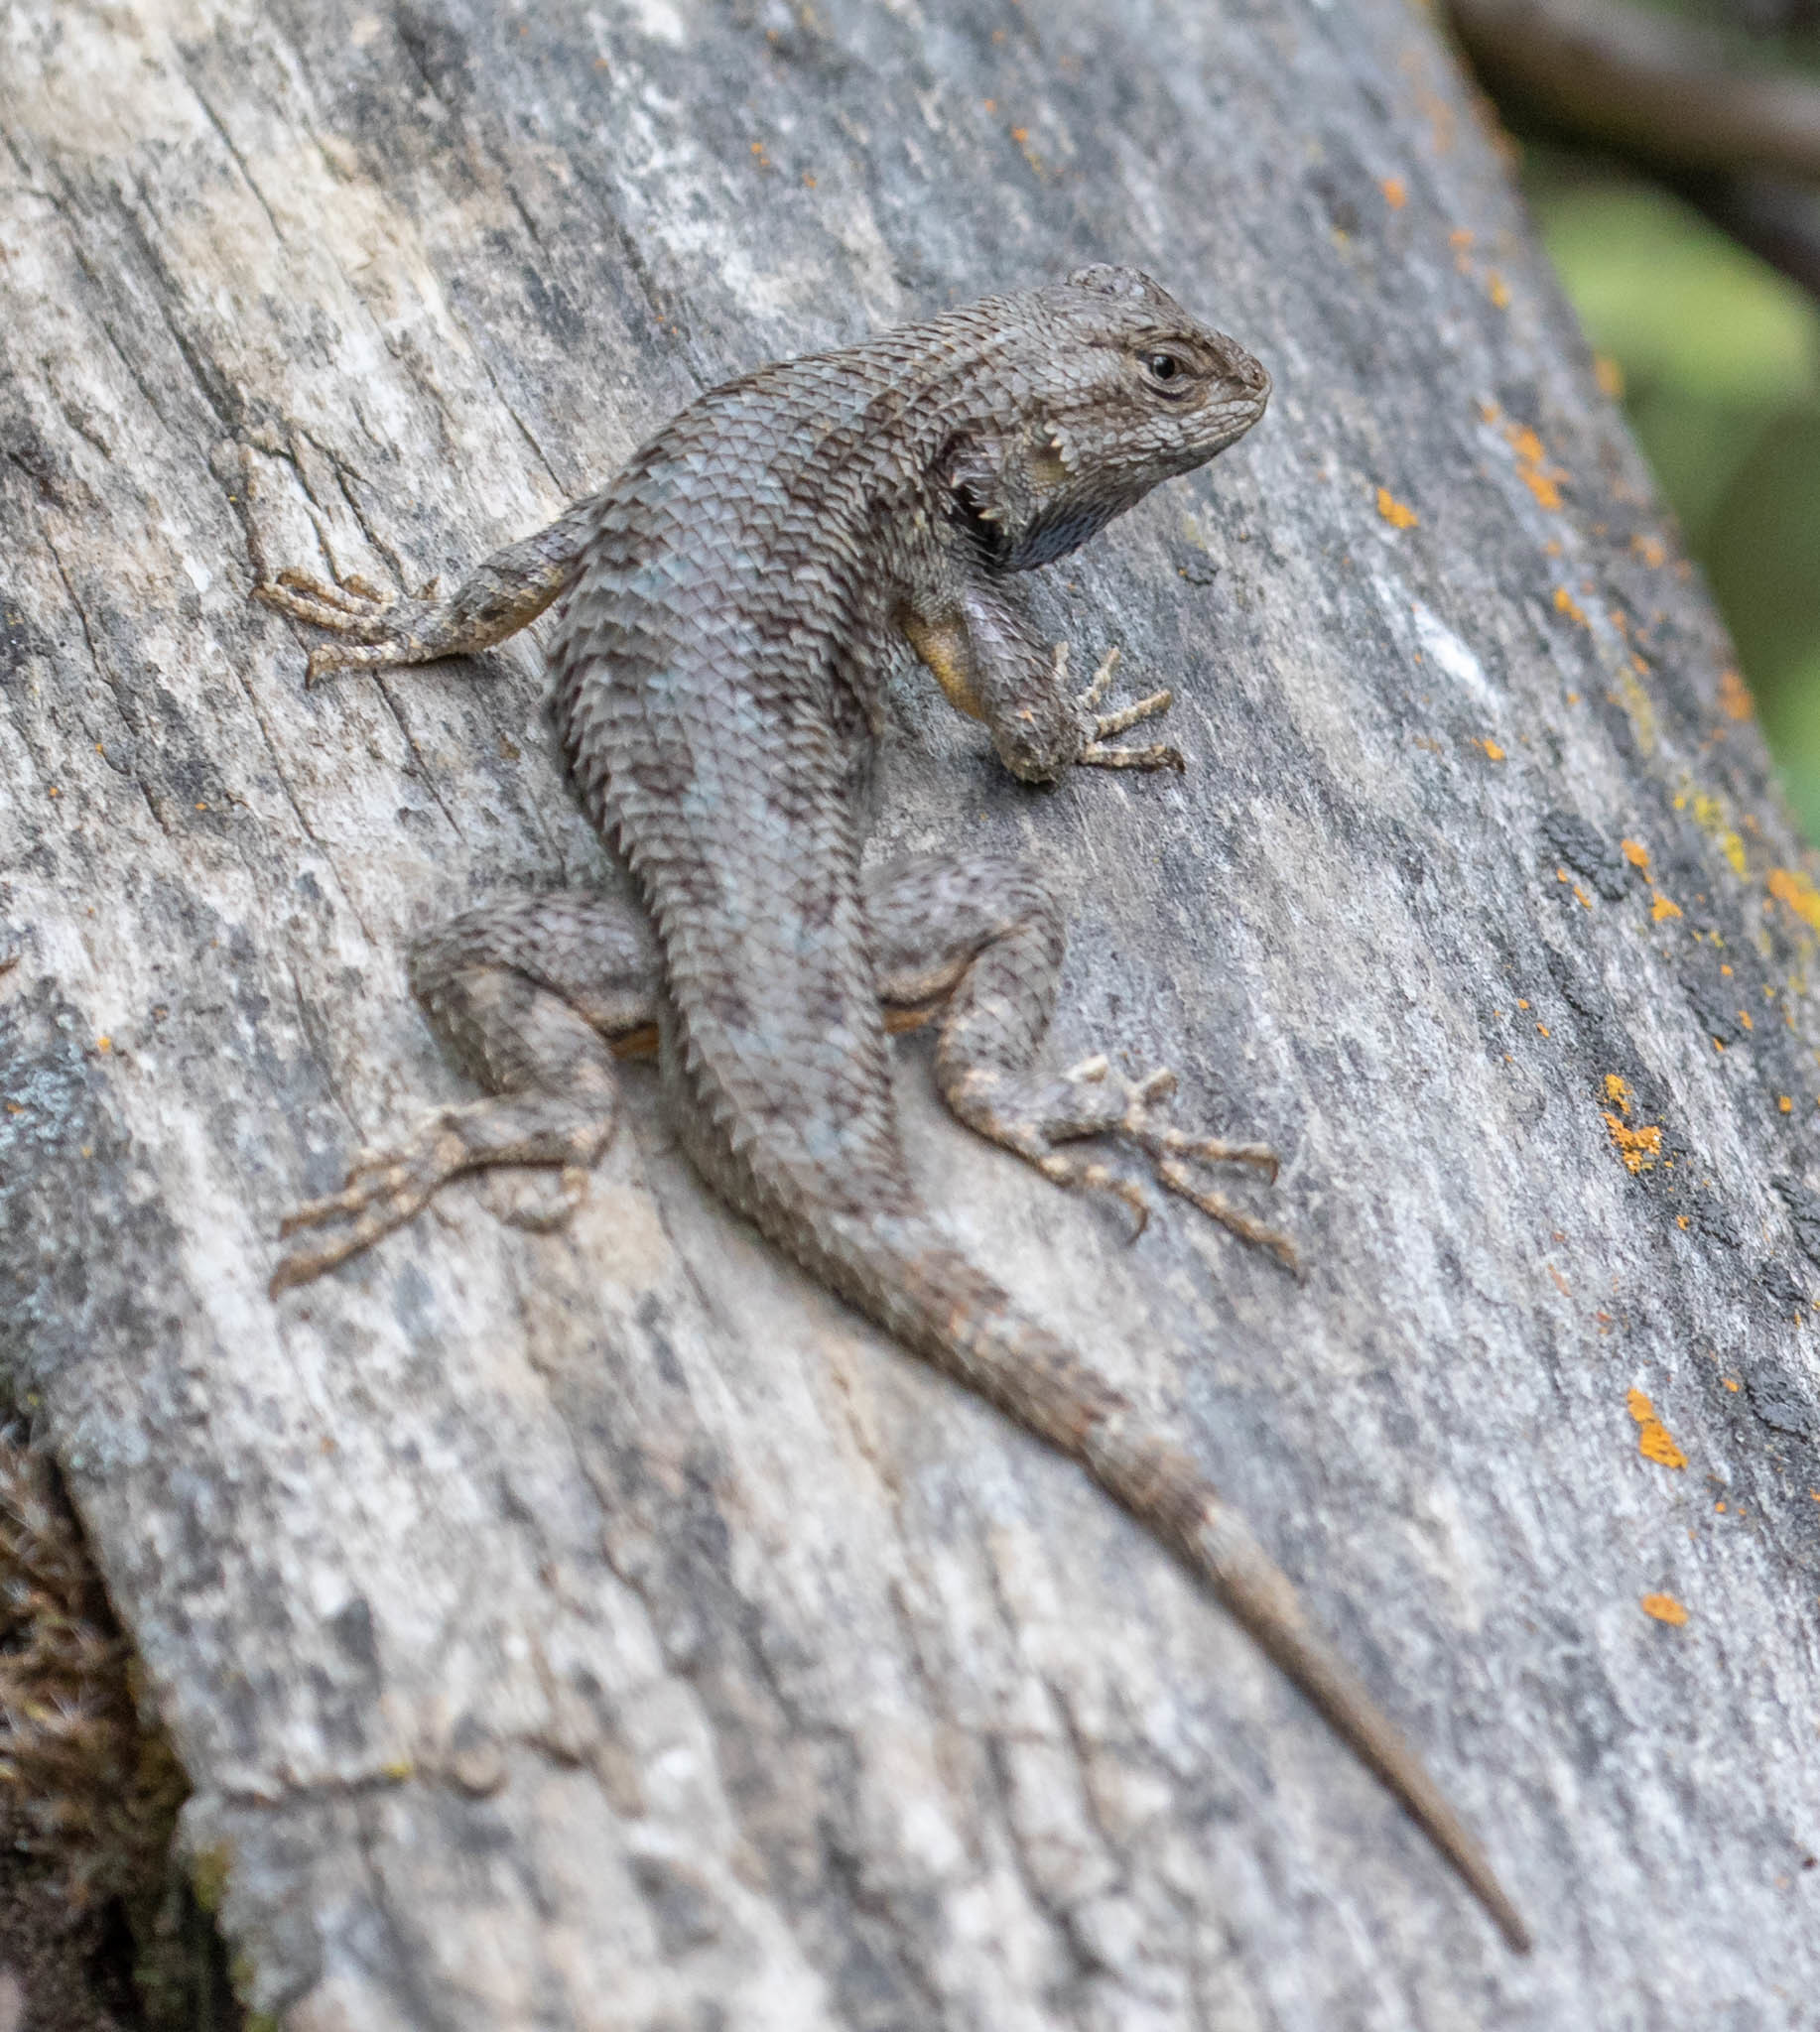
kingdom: Animalia
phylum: Chordata
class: Squamata
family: Phrynosomatidae
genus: Sceloporus
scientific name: Sceloporus occidentalis
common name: Western fence lizard
